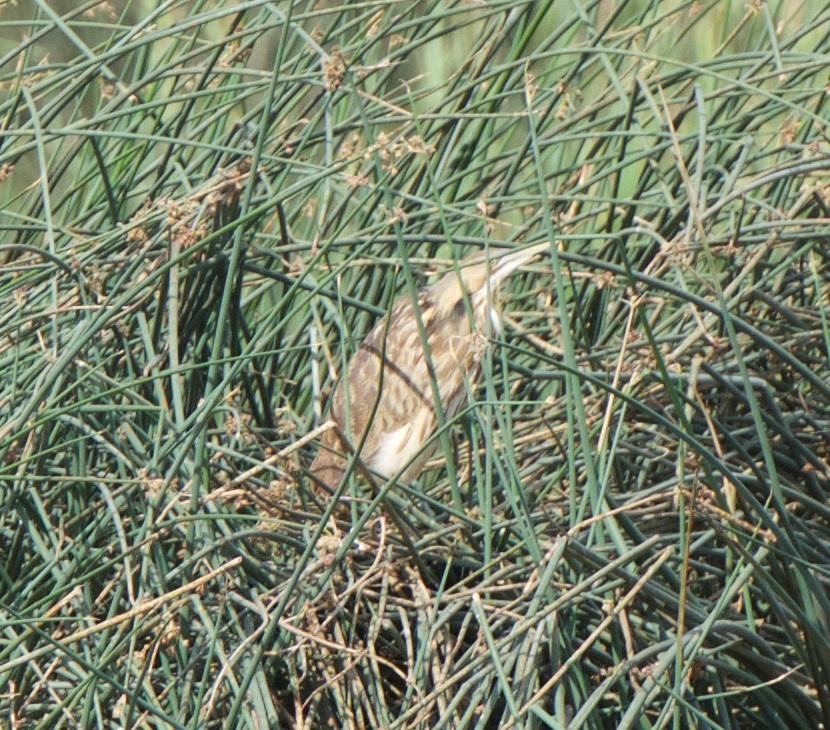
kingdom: Animalia
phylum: Chordata
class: Aves
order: Pelecaniformes
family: Ardeidae
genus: Botaurus
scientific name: Botaurus lentiginosus
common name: American bittern
